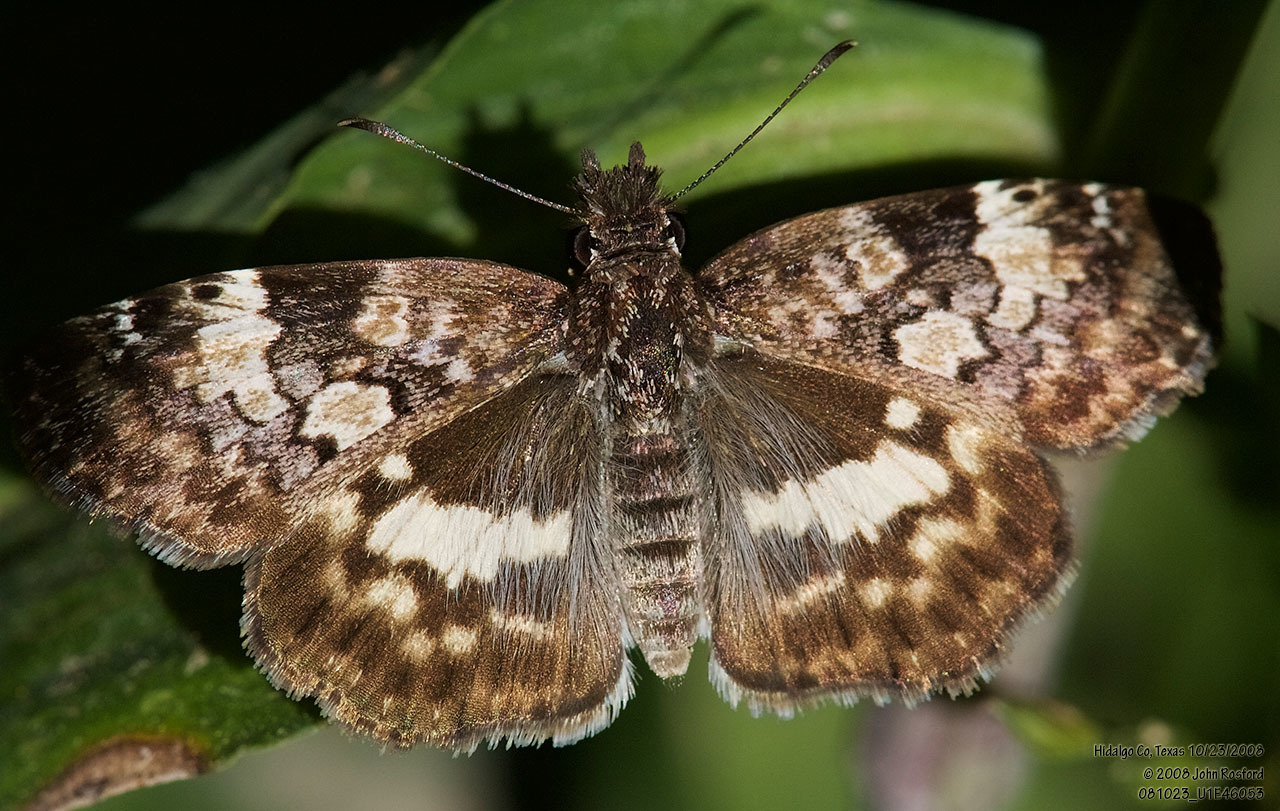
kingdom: Animalia
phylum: Arthropoda
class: Insecta
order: Lepidoptera
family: Hesperiidae
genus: Chiothion
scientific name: Chiothion georgina
